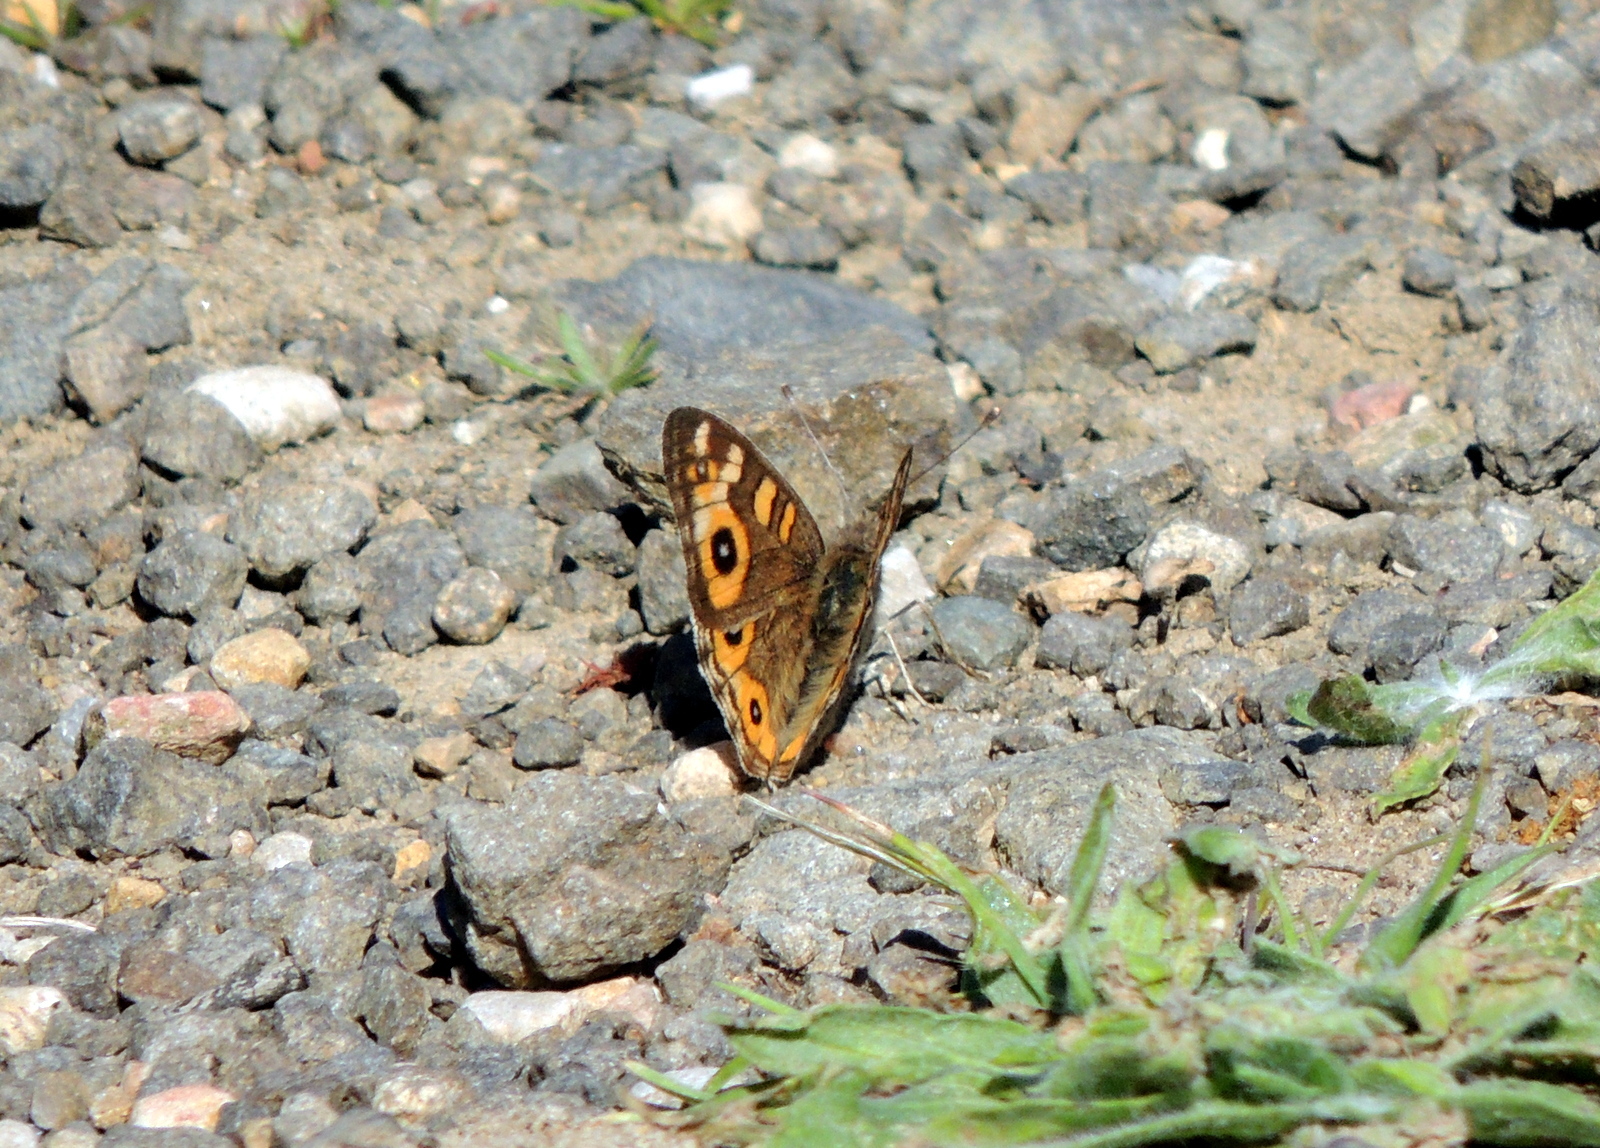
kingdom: Animalia
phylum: Arthropoda
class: Insecta
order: Lepidoptera
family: Nymphalidae
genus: Junonia
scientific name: Junonia villida
